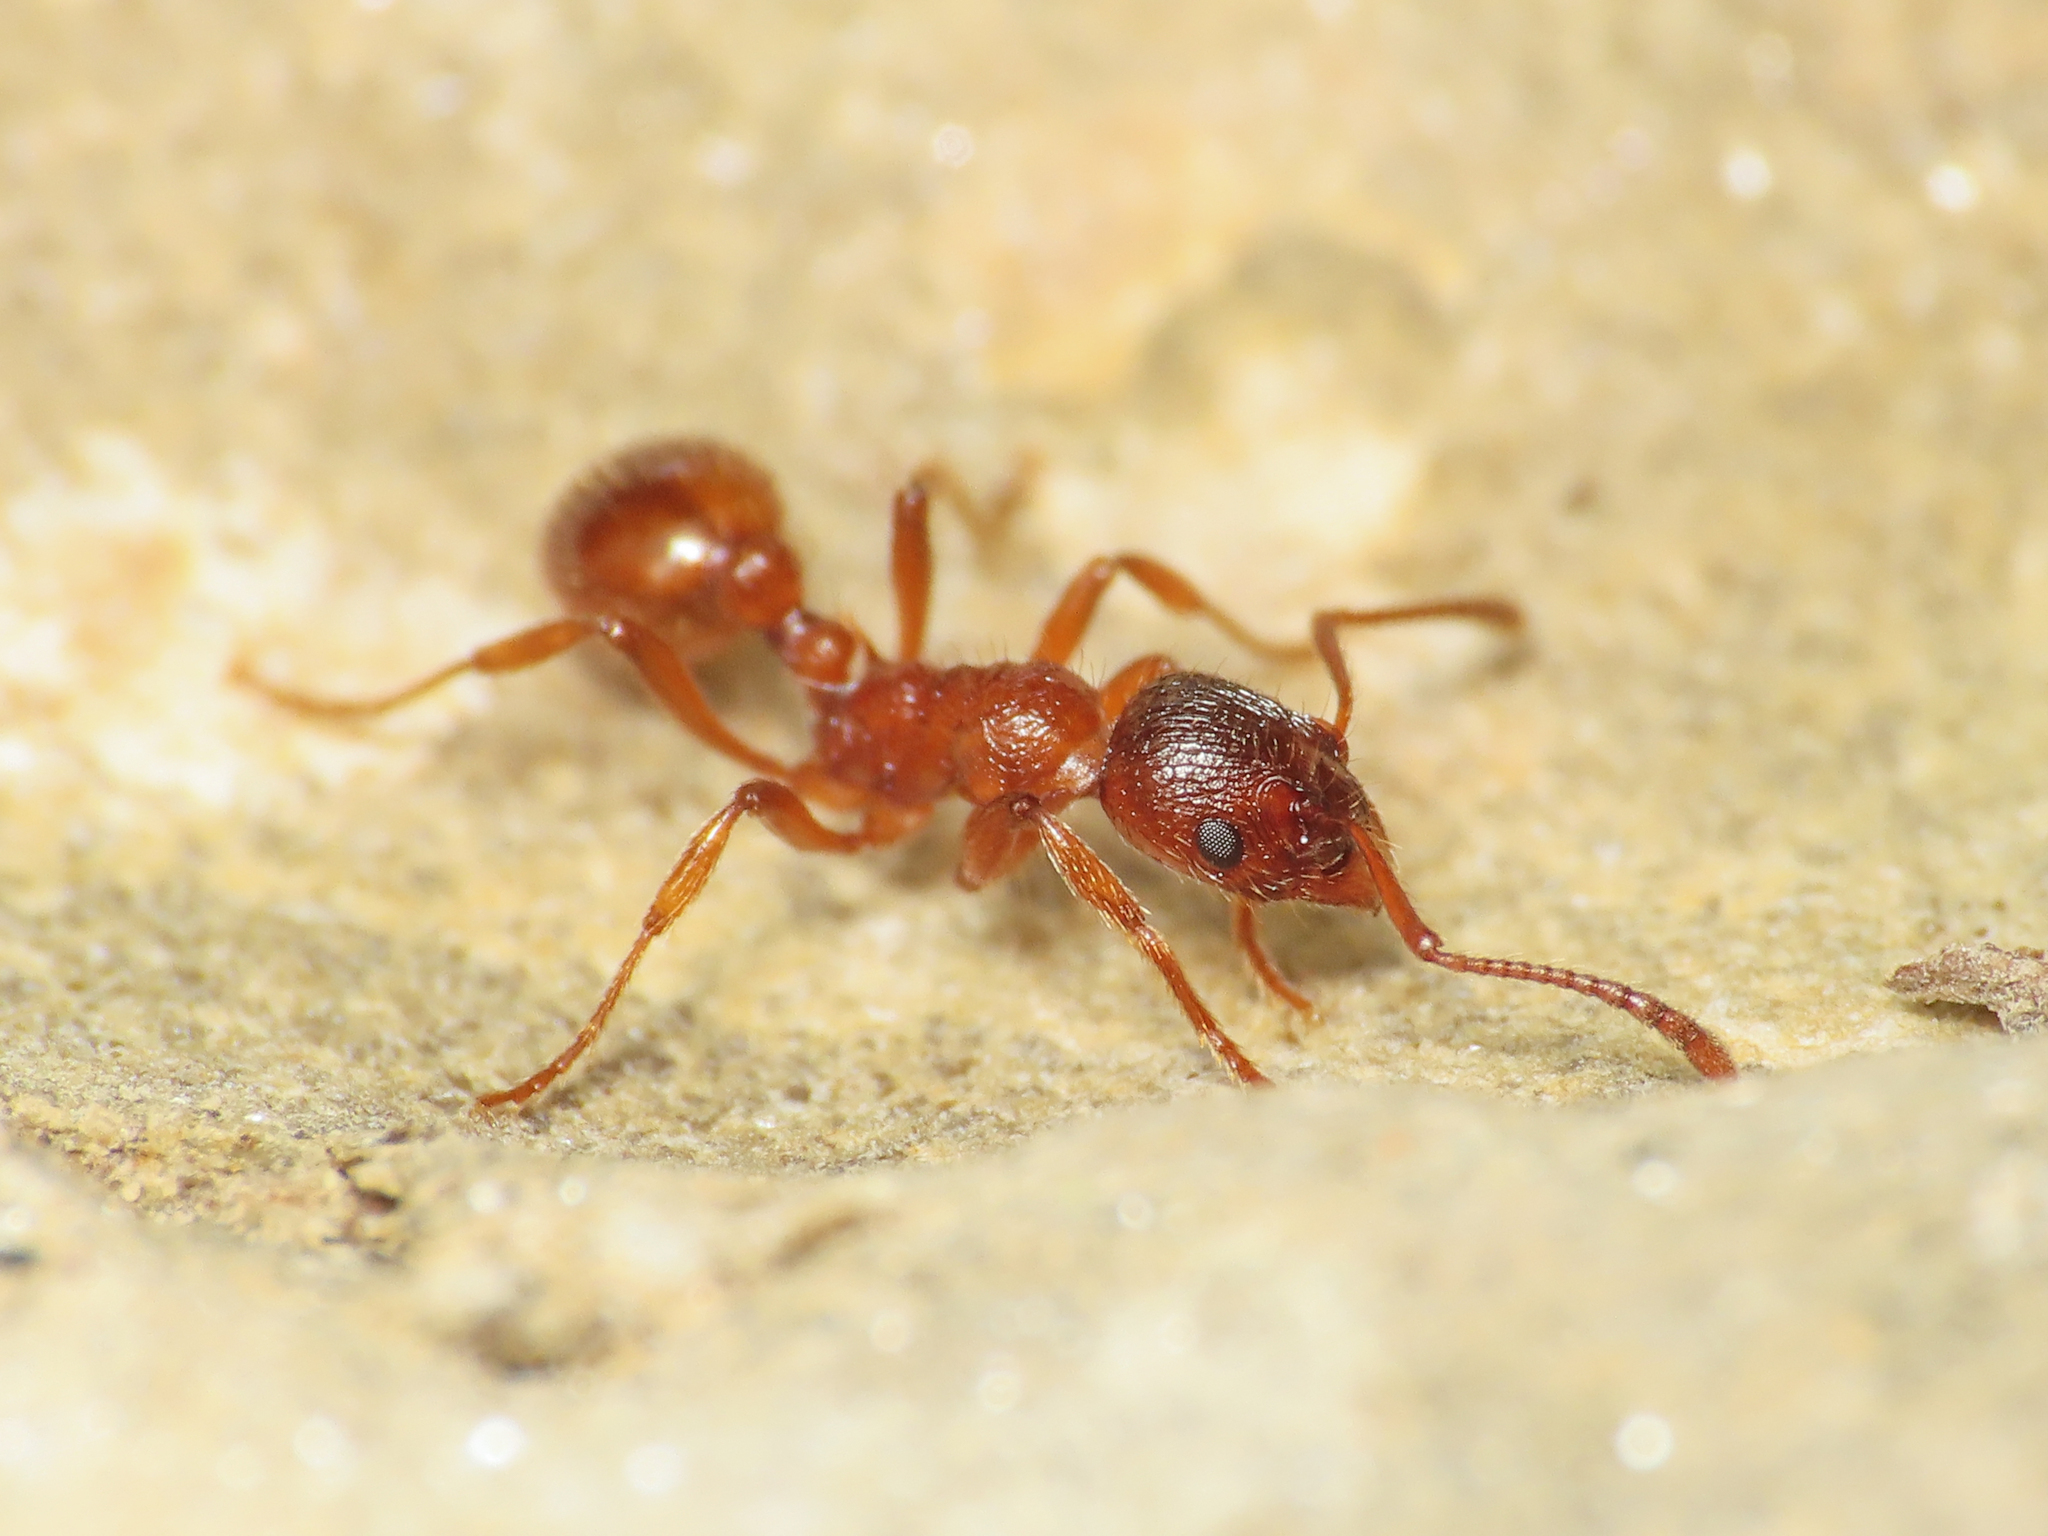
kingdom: Animalia
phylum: Arthropoda
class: Insecta
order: Hymenoptera
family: Formicidae
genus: Myrmica
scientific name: Myrmica rubra
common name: European fire ant
